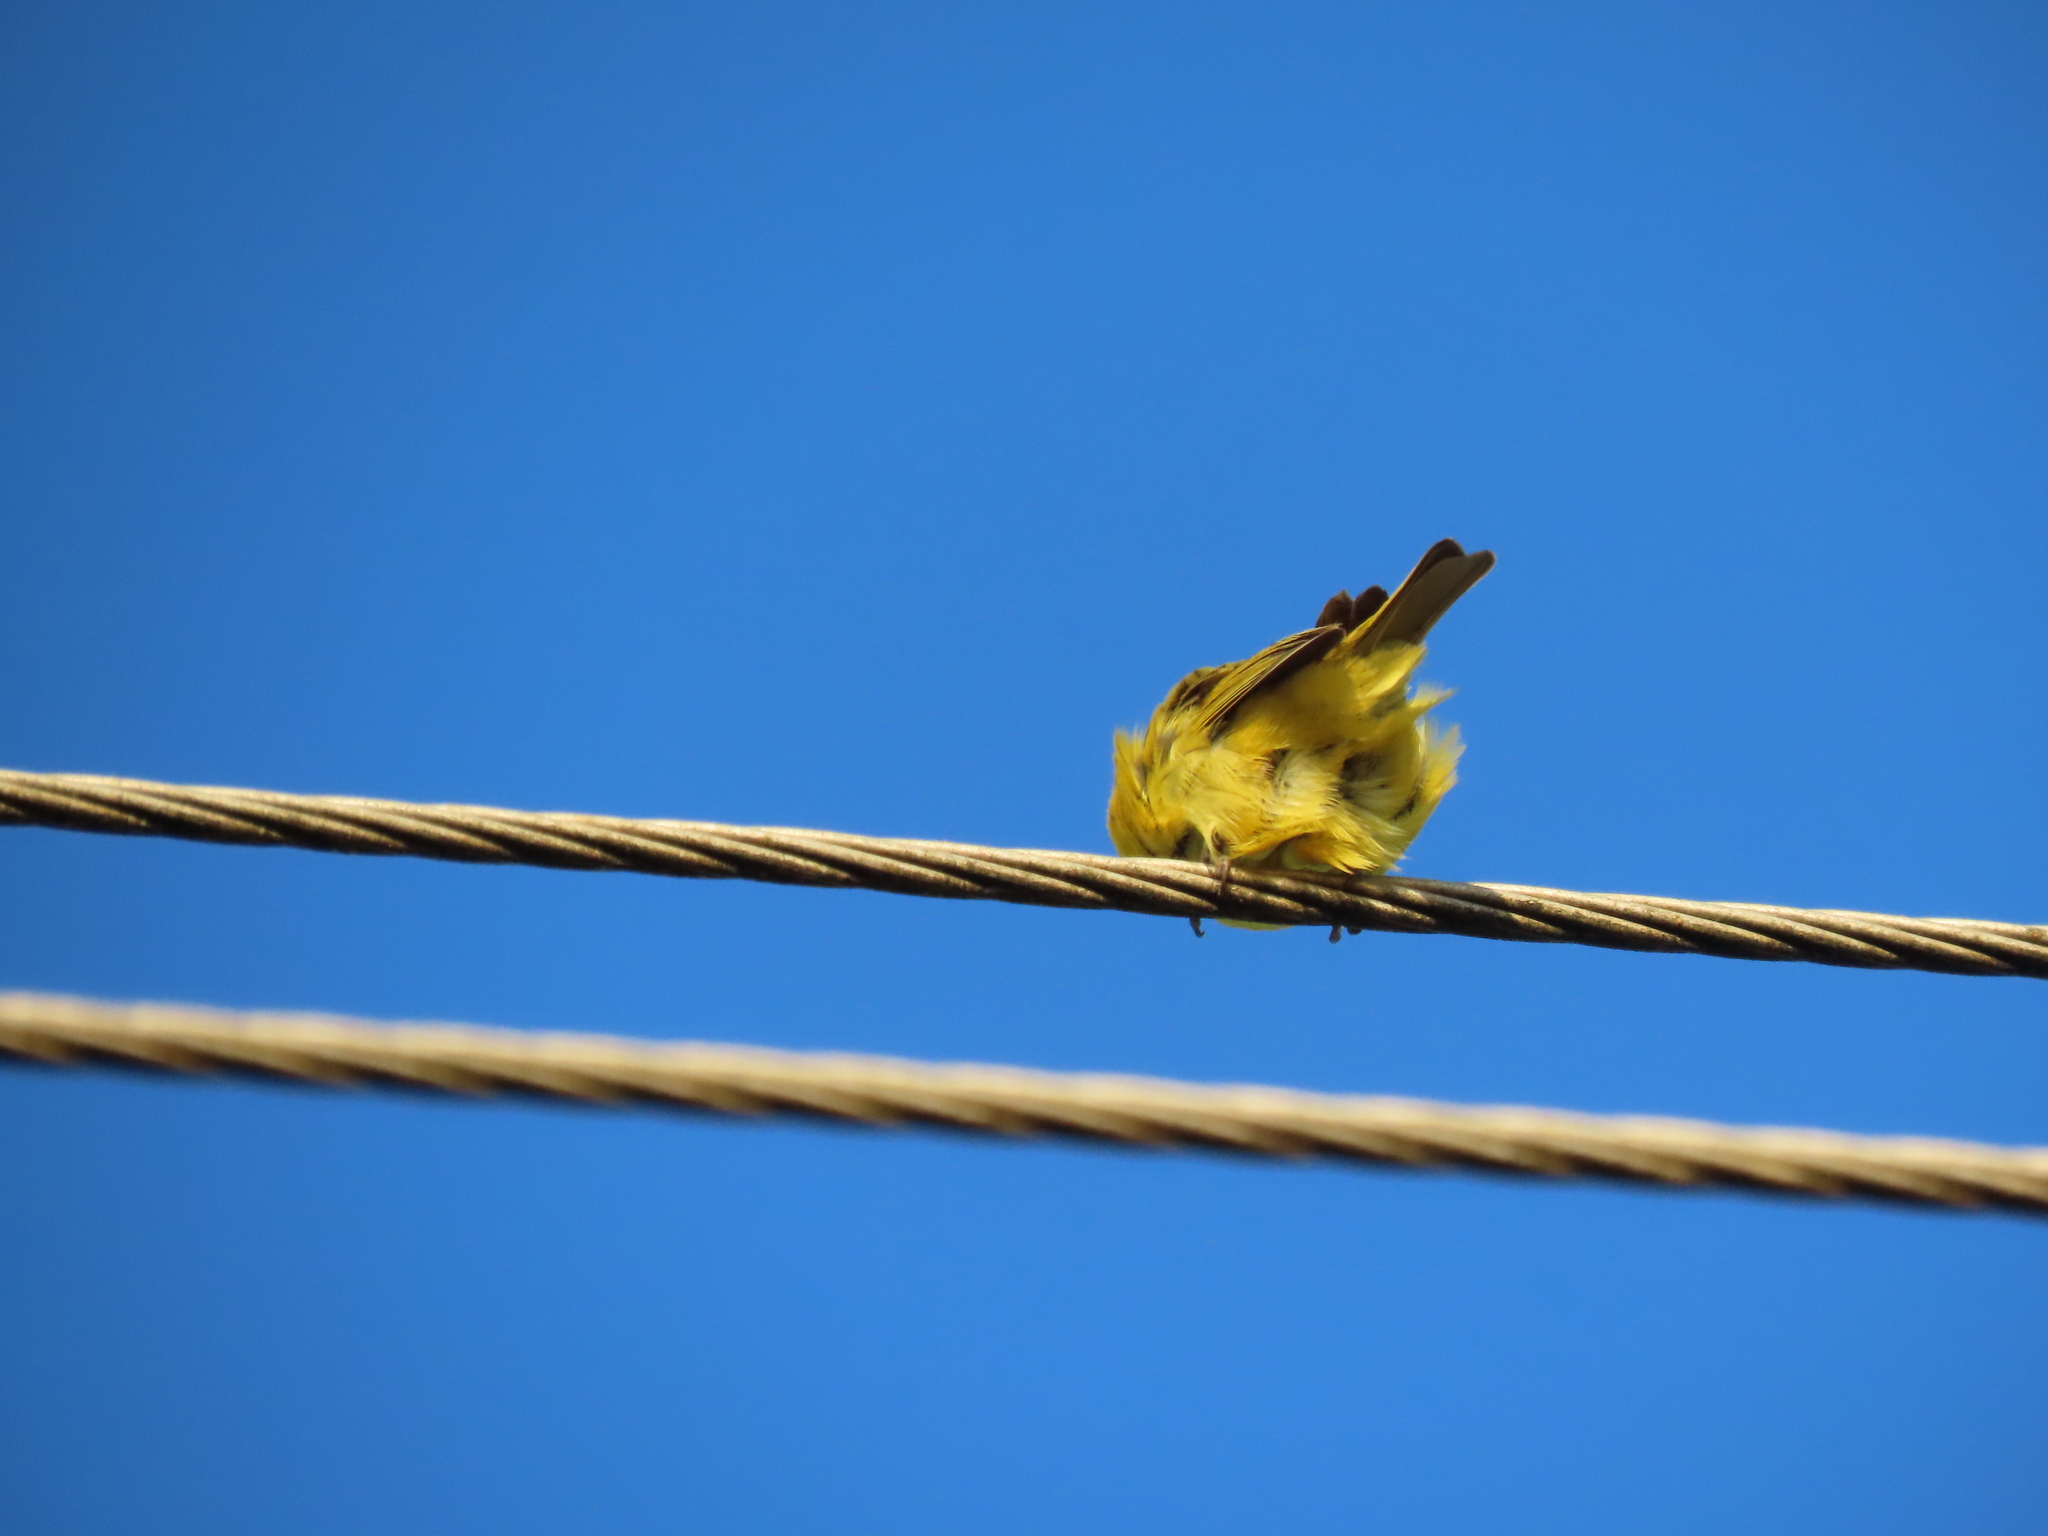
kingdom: Animalia
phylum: Chordata
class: Aves
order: Passeriformes
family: Thraupidae
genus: Sicalis
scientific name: Sicalis flaveola
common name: Saffron finch
